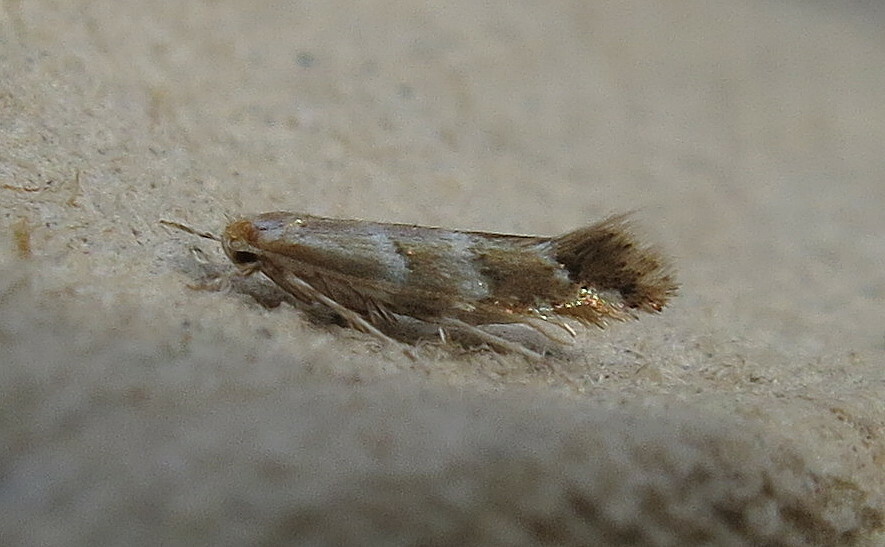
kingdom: Animalia
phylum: Arthropoda
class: Insecta
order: Lepidoptera
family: Gracillariidae
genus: Cameraria
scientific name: Cameraria ohridella
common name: Horse-chestnut leaf-miner
